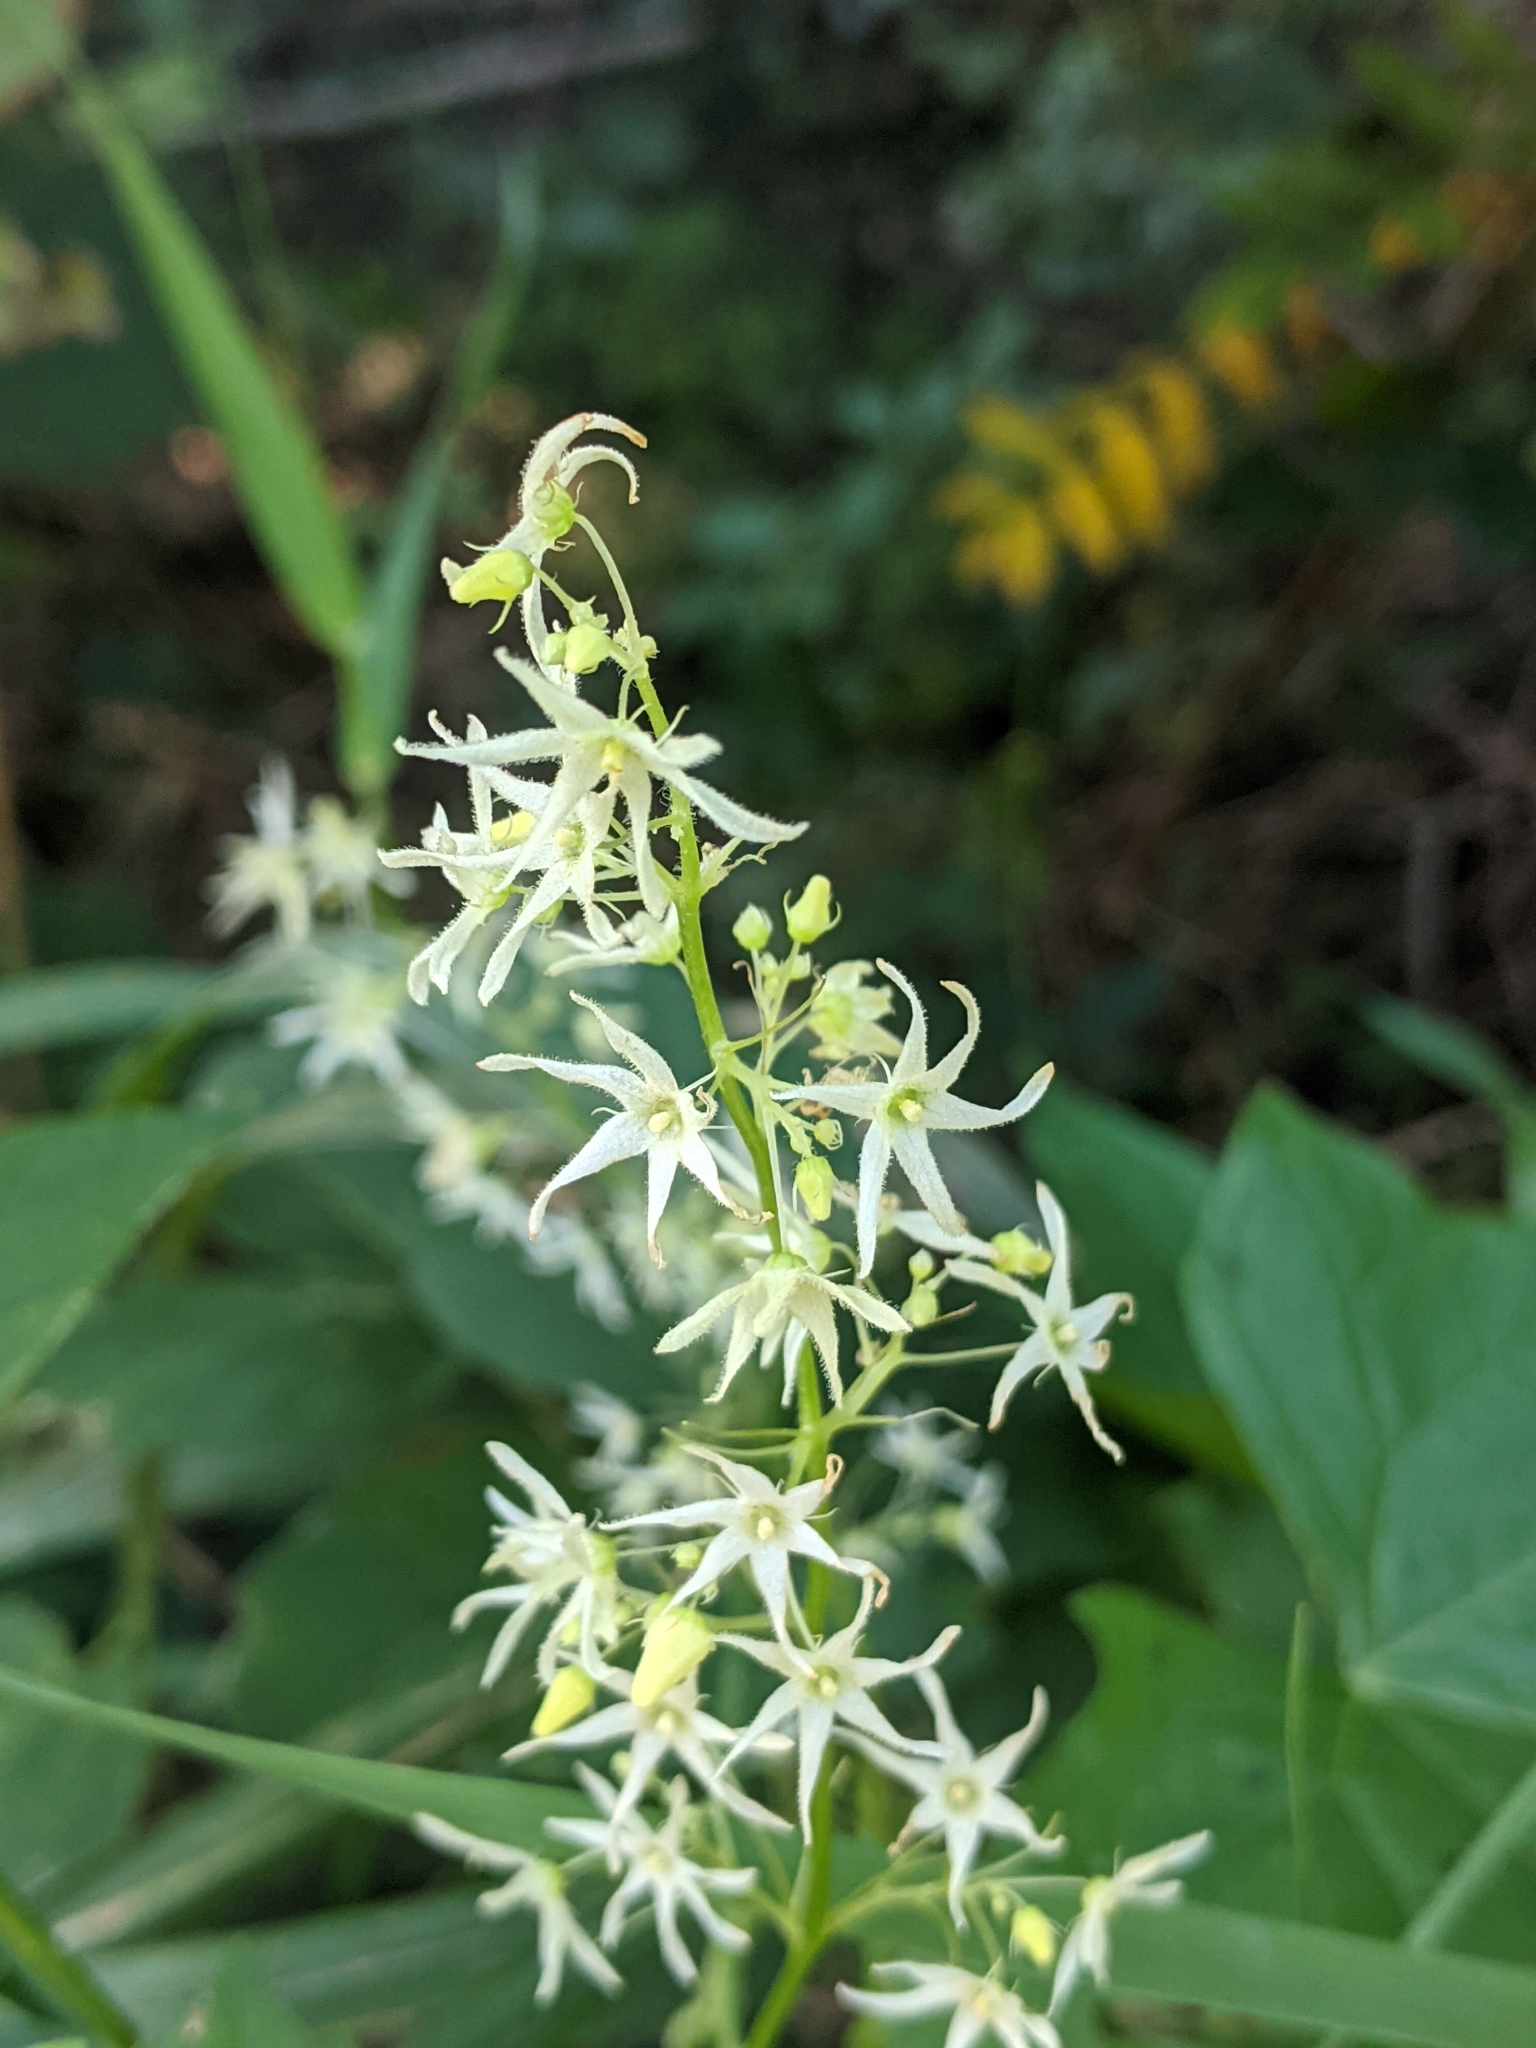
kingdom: Plantae
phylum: Tracheophyta
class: Magnoliopsida
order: Cucurbitales
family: Cucurbitaceae
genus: Echinocystis
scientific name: Echinocystis lobata
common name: Wild cucumber
